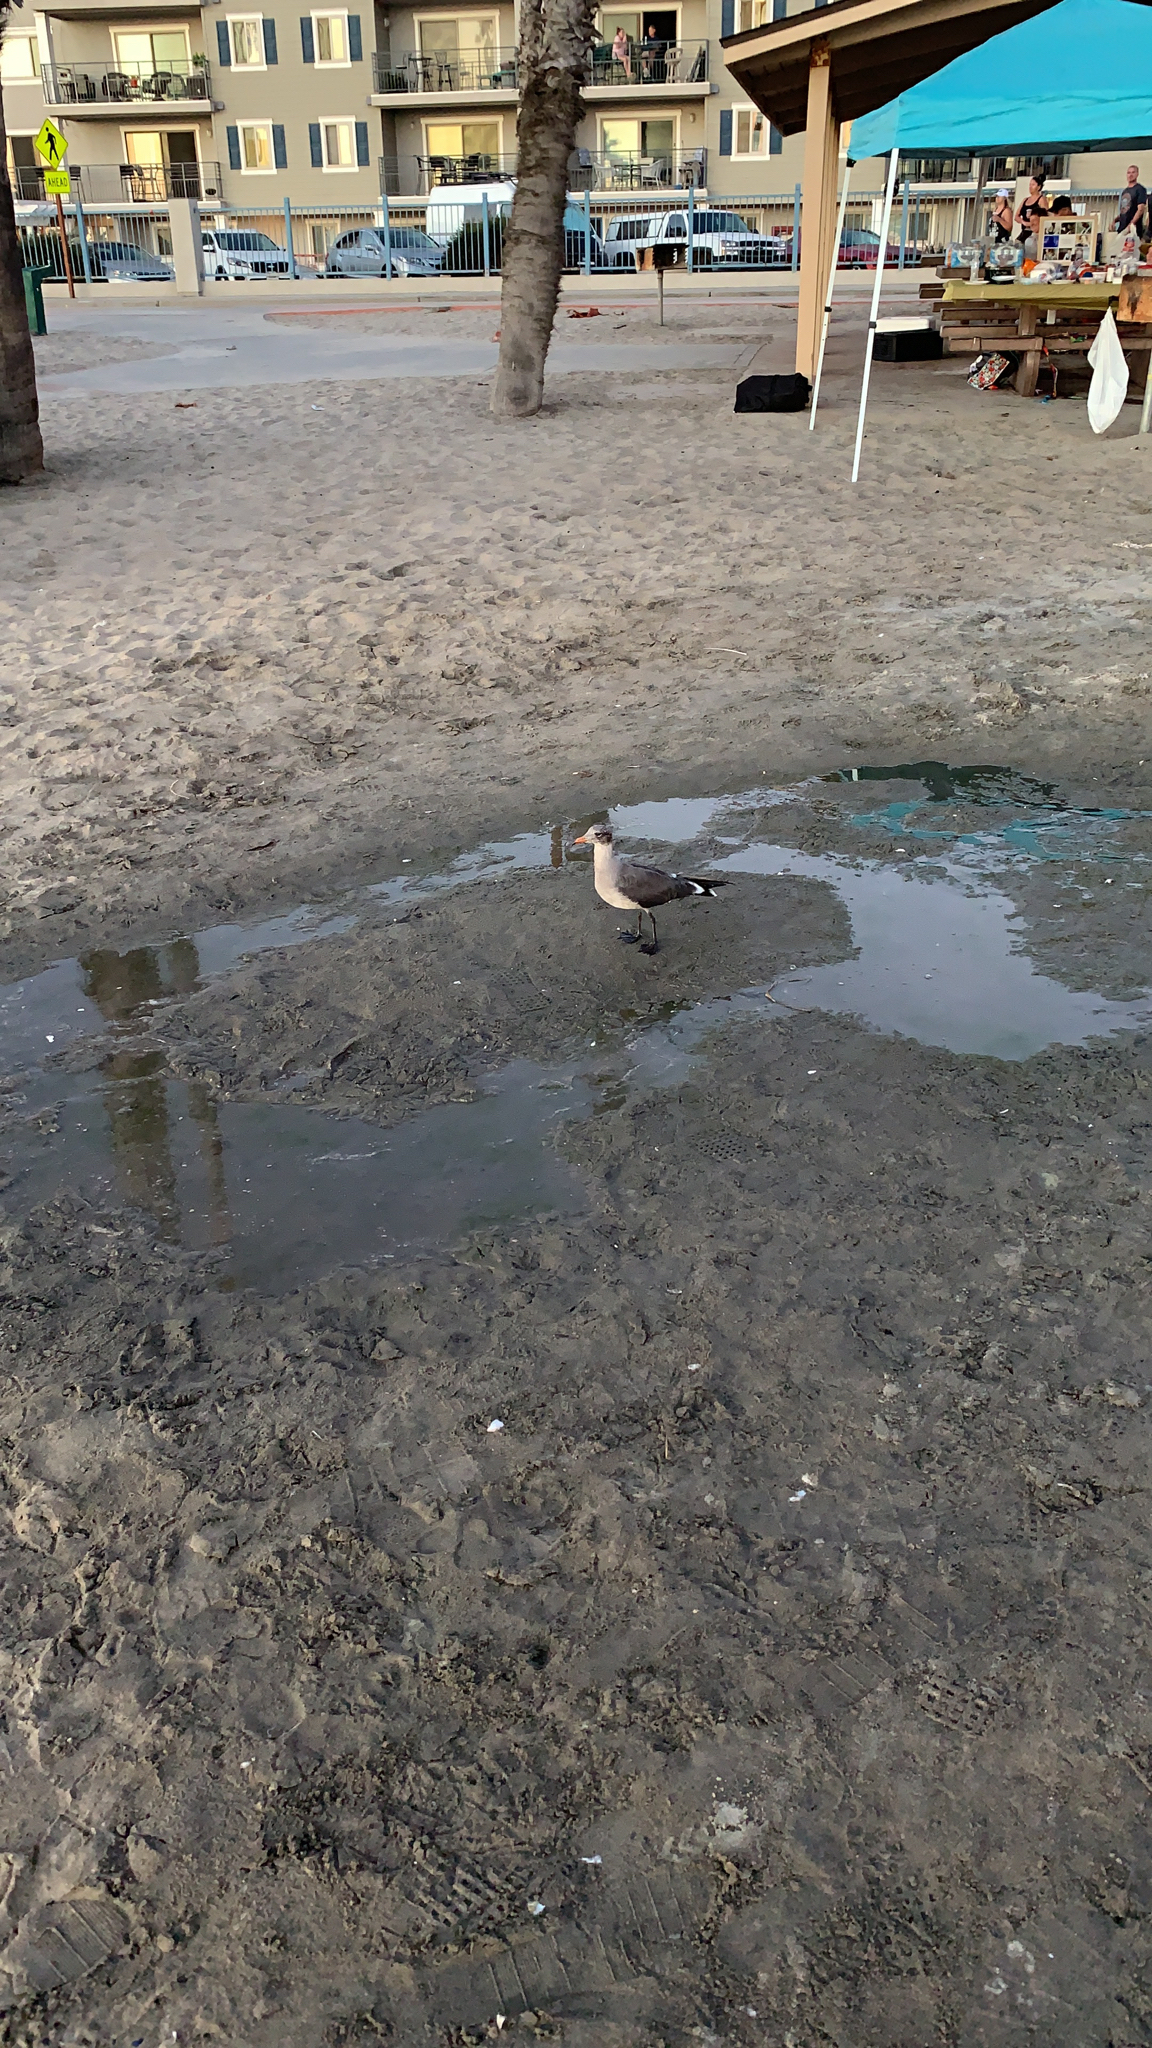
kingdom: Animalia
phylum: Chordata
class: Aves
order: Charadriiformes
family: Laridae
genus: Larus
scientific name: Larus heermanni
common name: Heermann's gull
